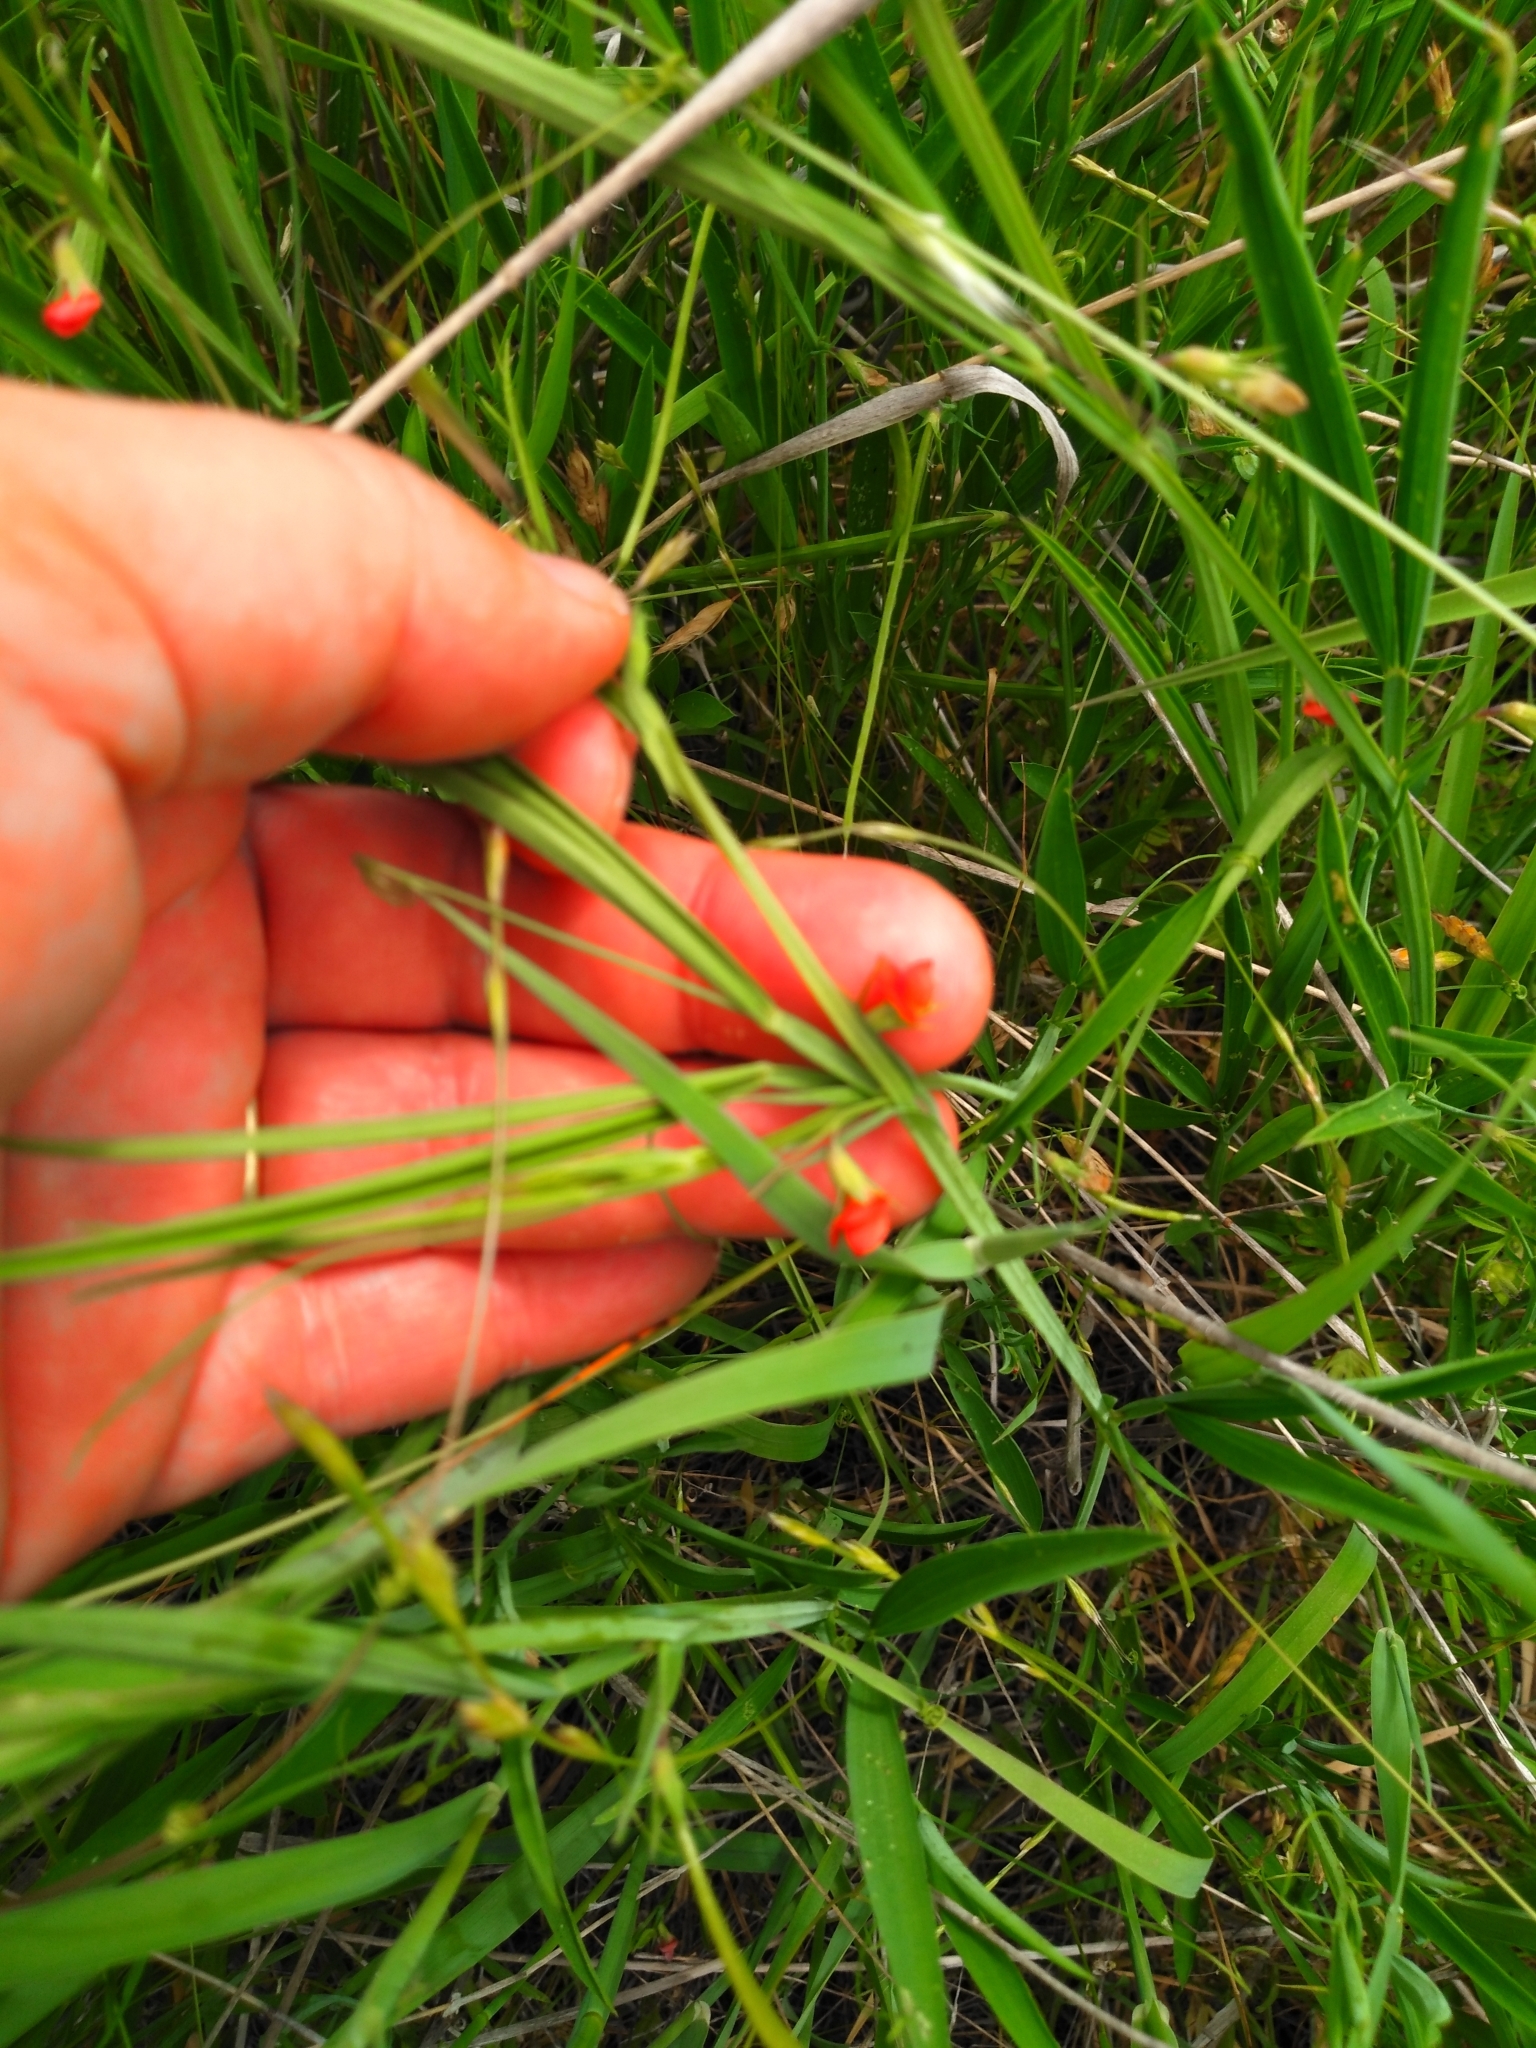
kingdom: Plantae
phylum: Tracheophyta
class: Magnoliopsida
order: Fabales
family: Fabaceae
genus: Lathyrus
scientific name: Lathyrus cicera
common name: Red vetchling
